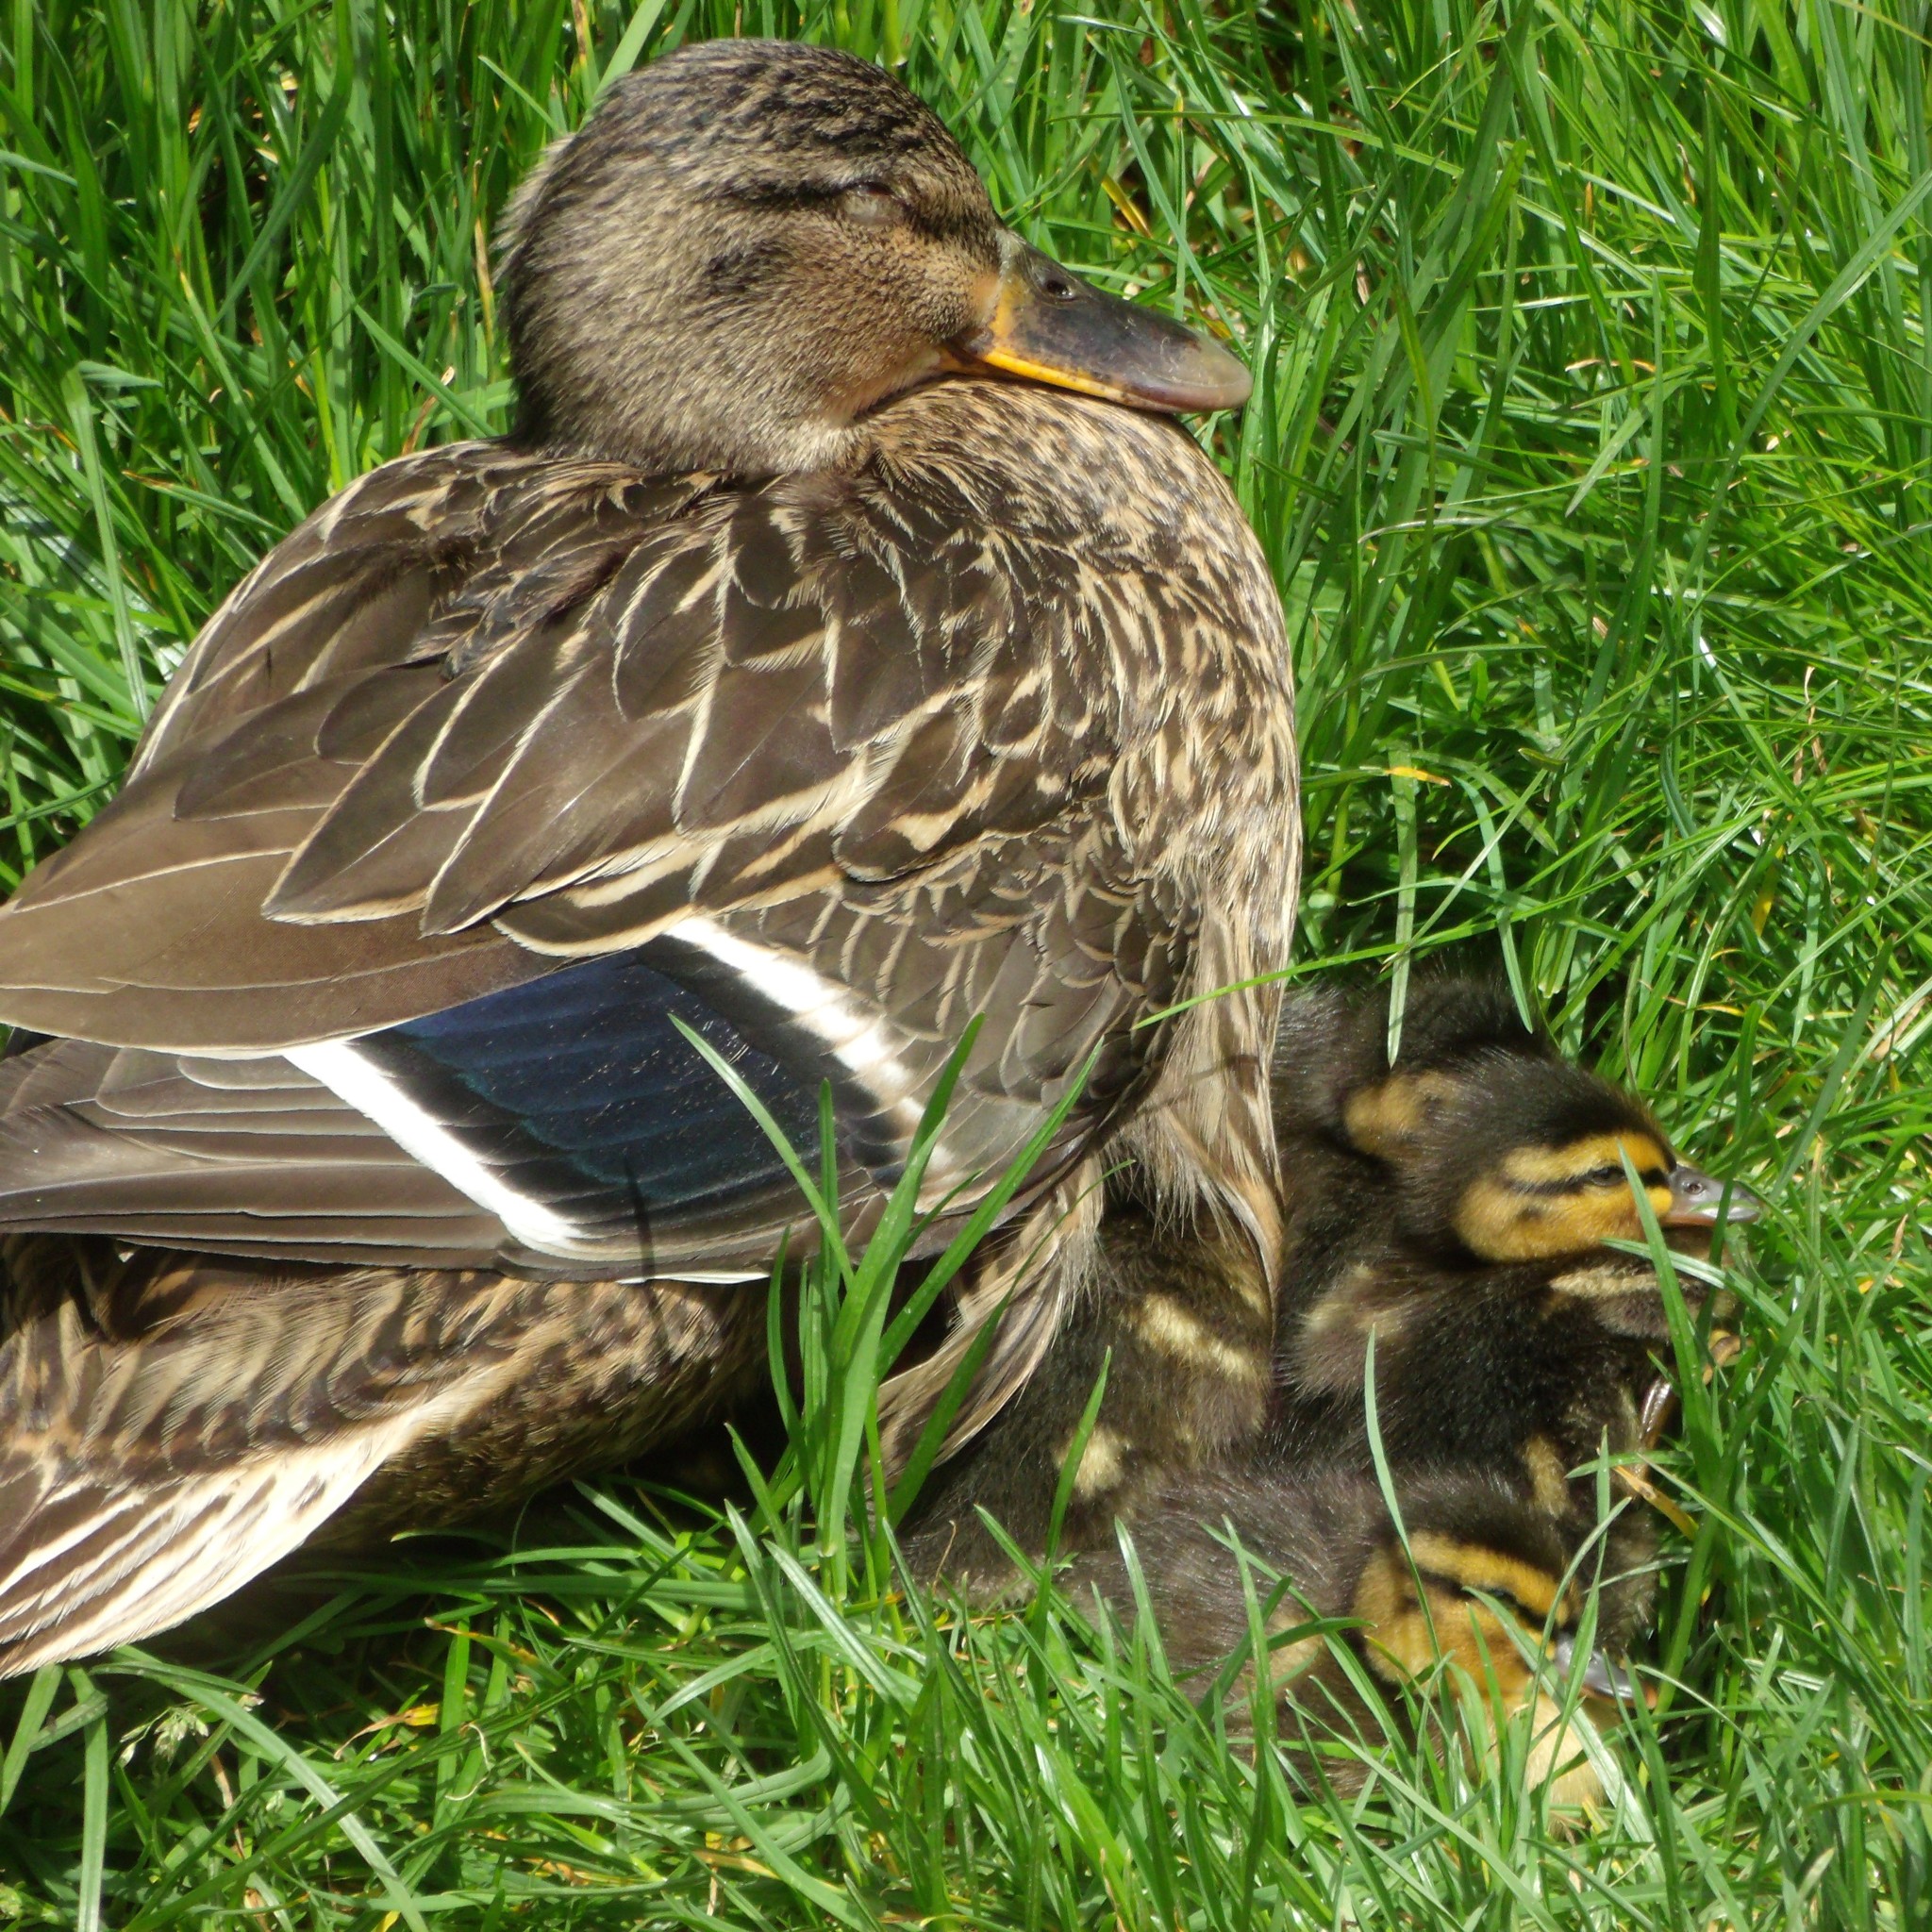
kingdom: Animalia
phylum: Chordata
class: Aves
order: Anseriformes
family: Anatidae
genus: Anas
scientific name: Anas platyrhynchos
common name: Mallard
